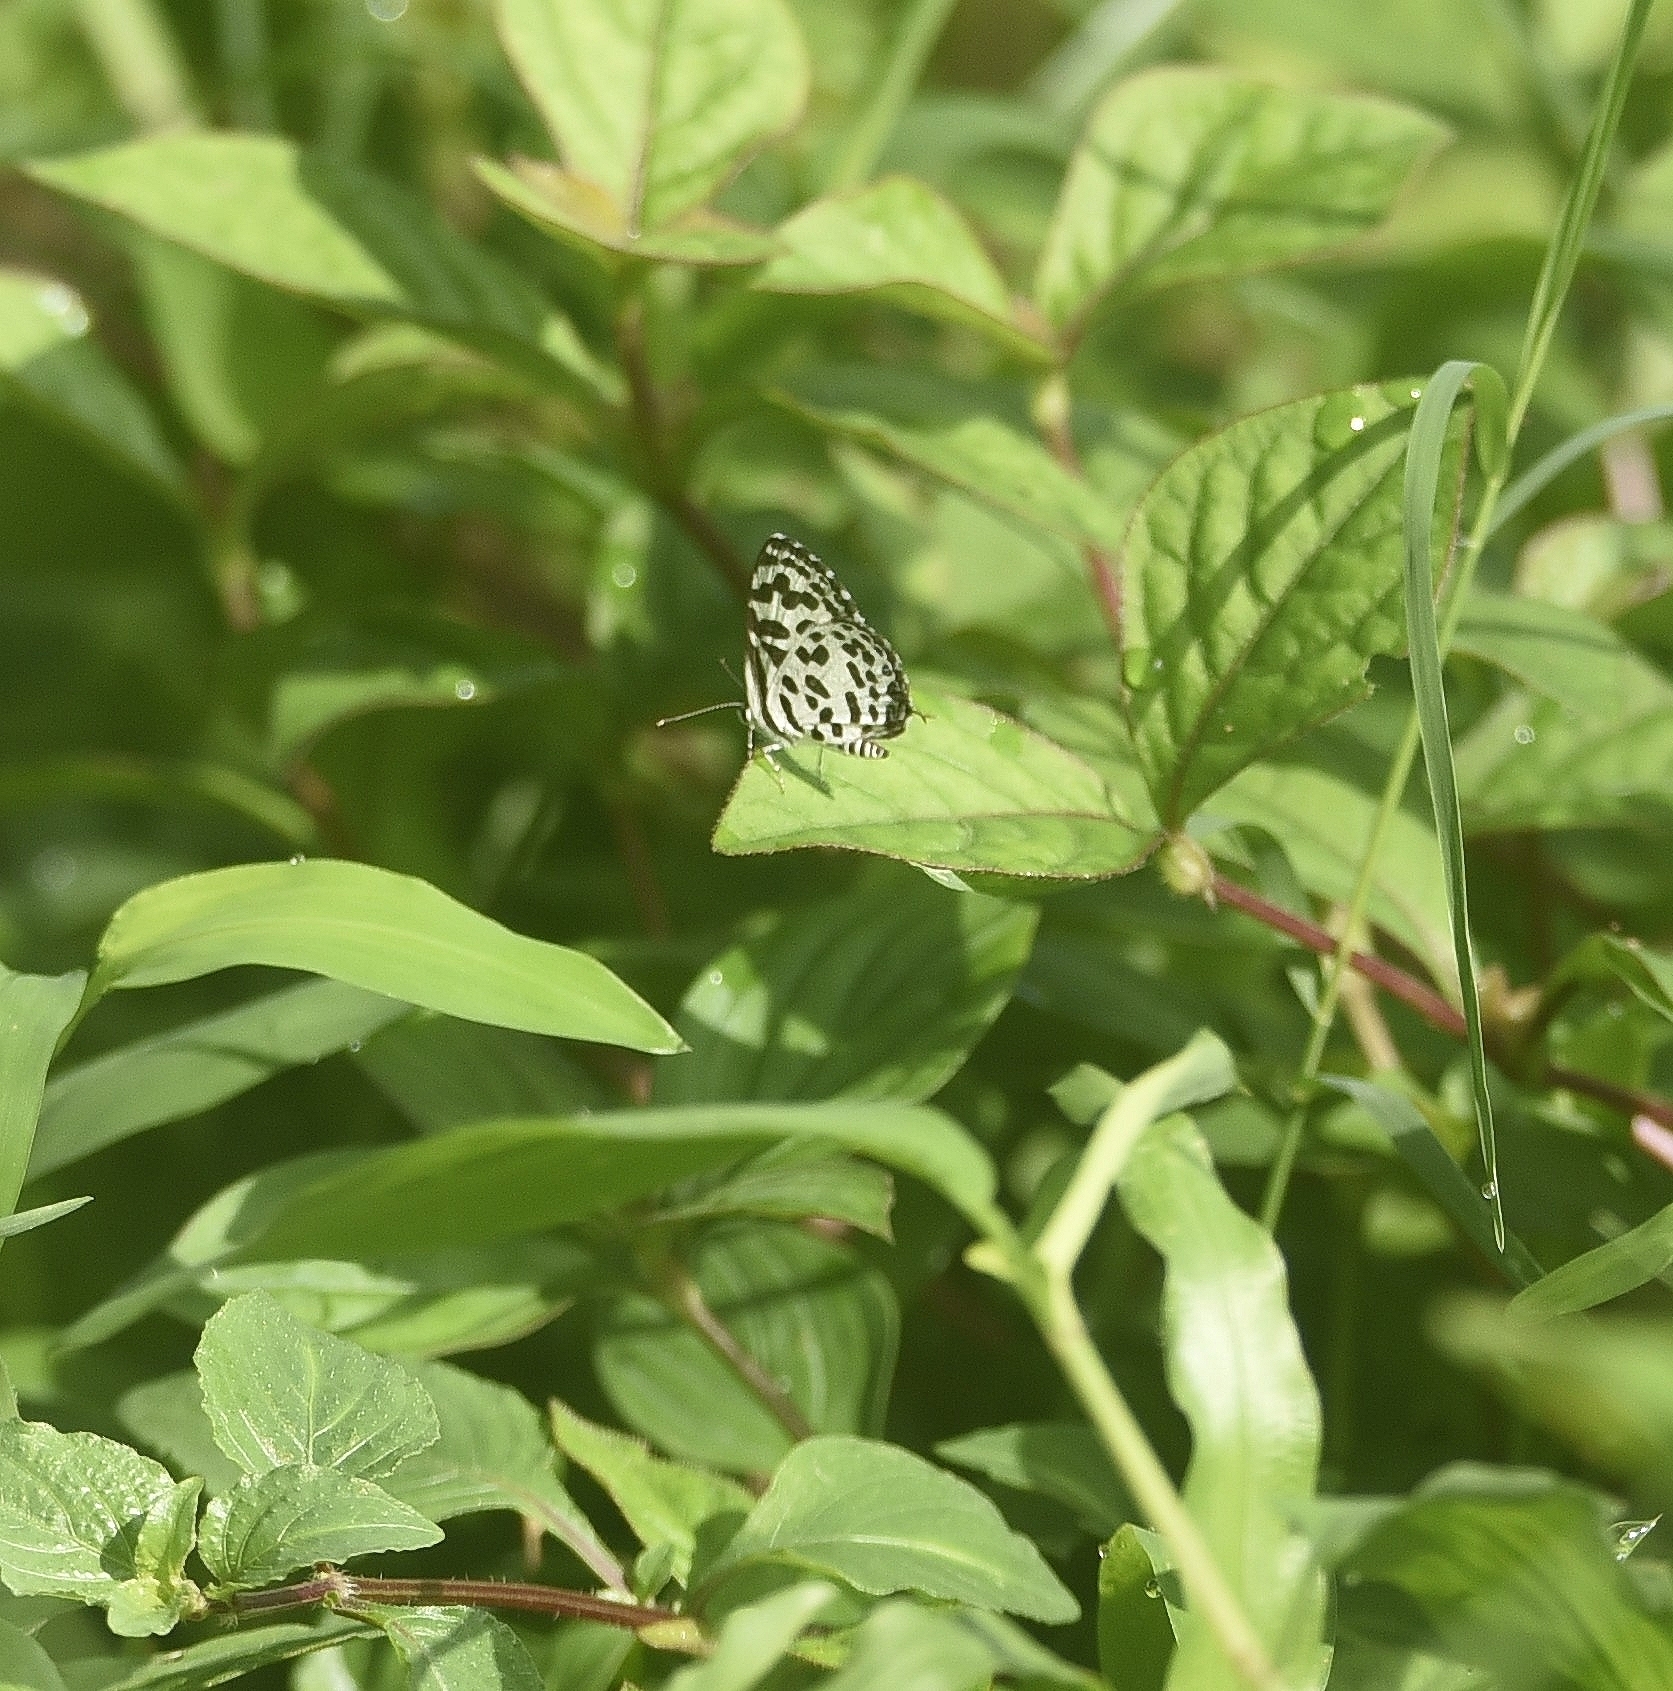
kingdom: Animalia
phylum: Arthropoda
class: Insecta
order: Lepidoptera
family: Lycaenidae
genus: Castalius
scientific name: Castalius rosimon
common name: Common pierrot
